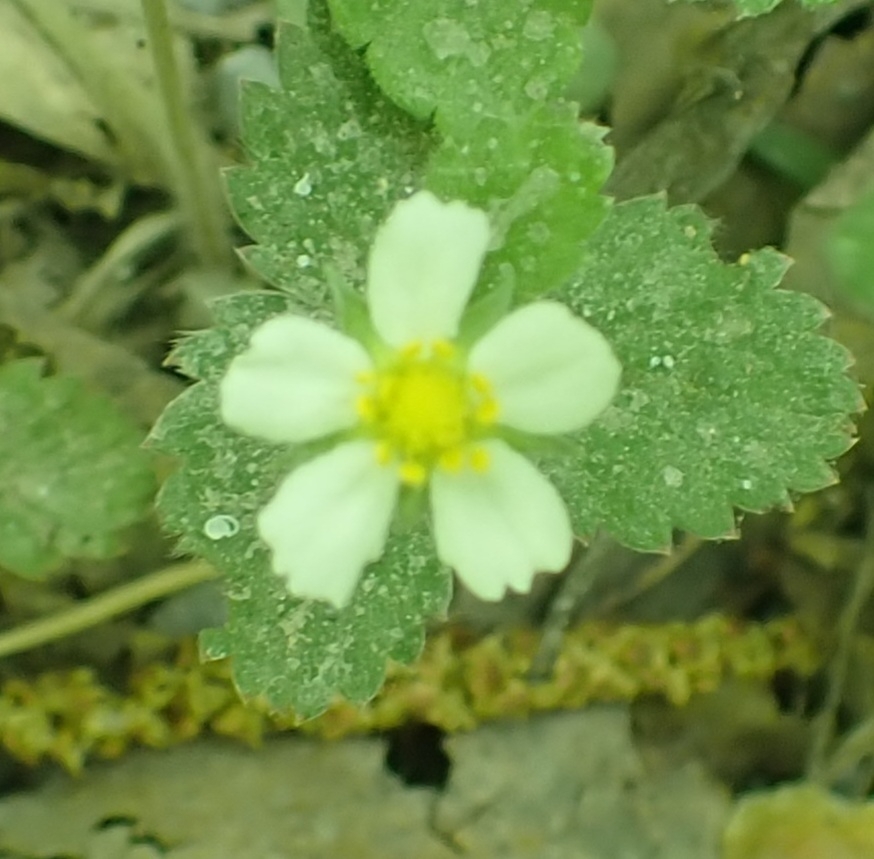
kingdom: Plantae
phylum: Tracheophyta
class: Magnoliopsida
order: Rosales
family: Rosaceae
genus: Fragaria
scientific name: Fragaria vesca
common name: Wild strawberry
